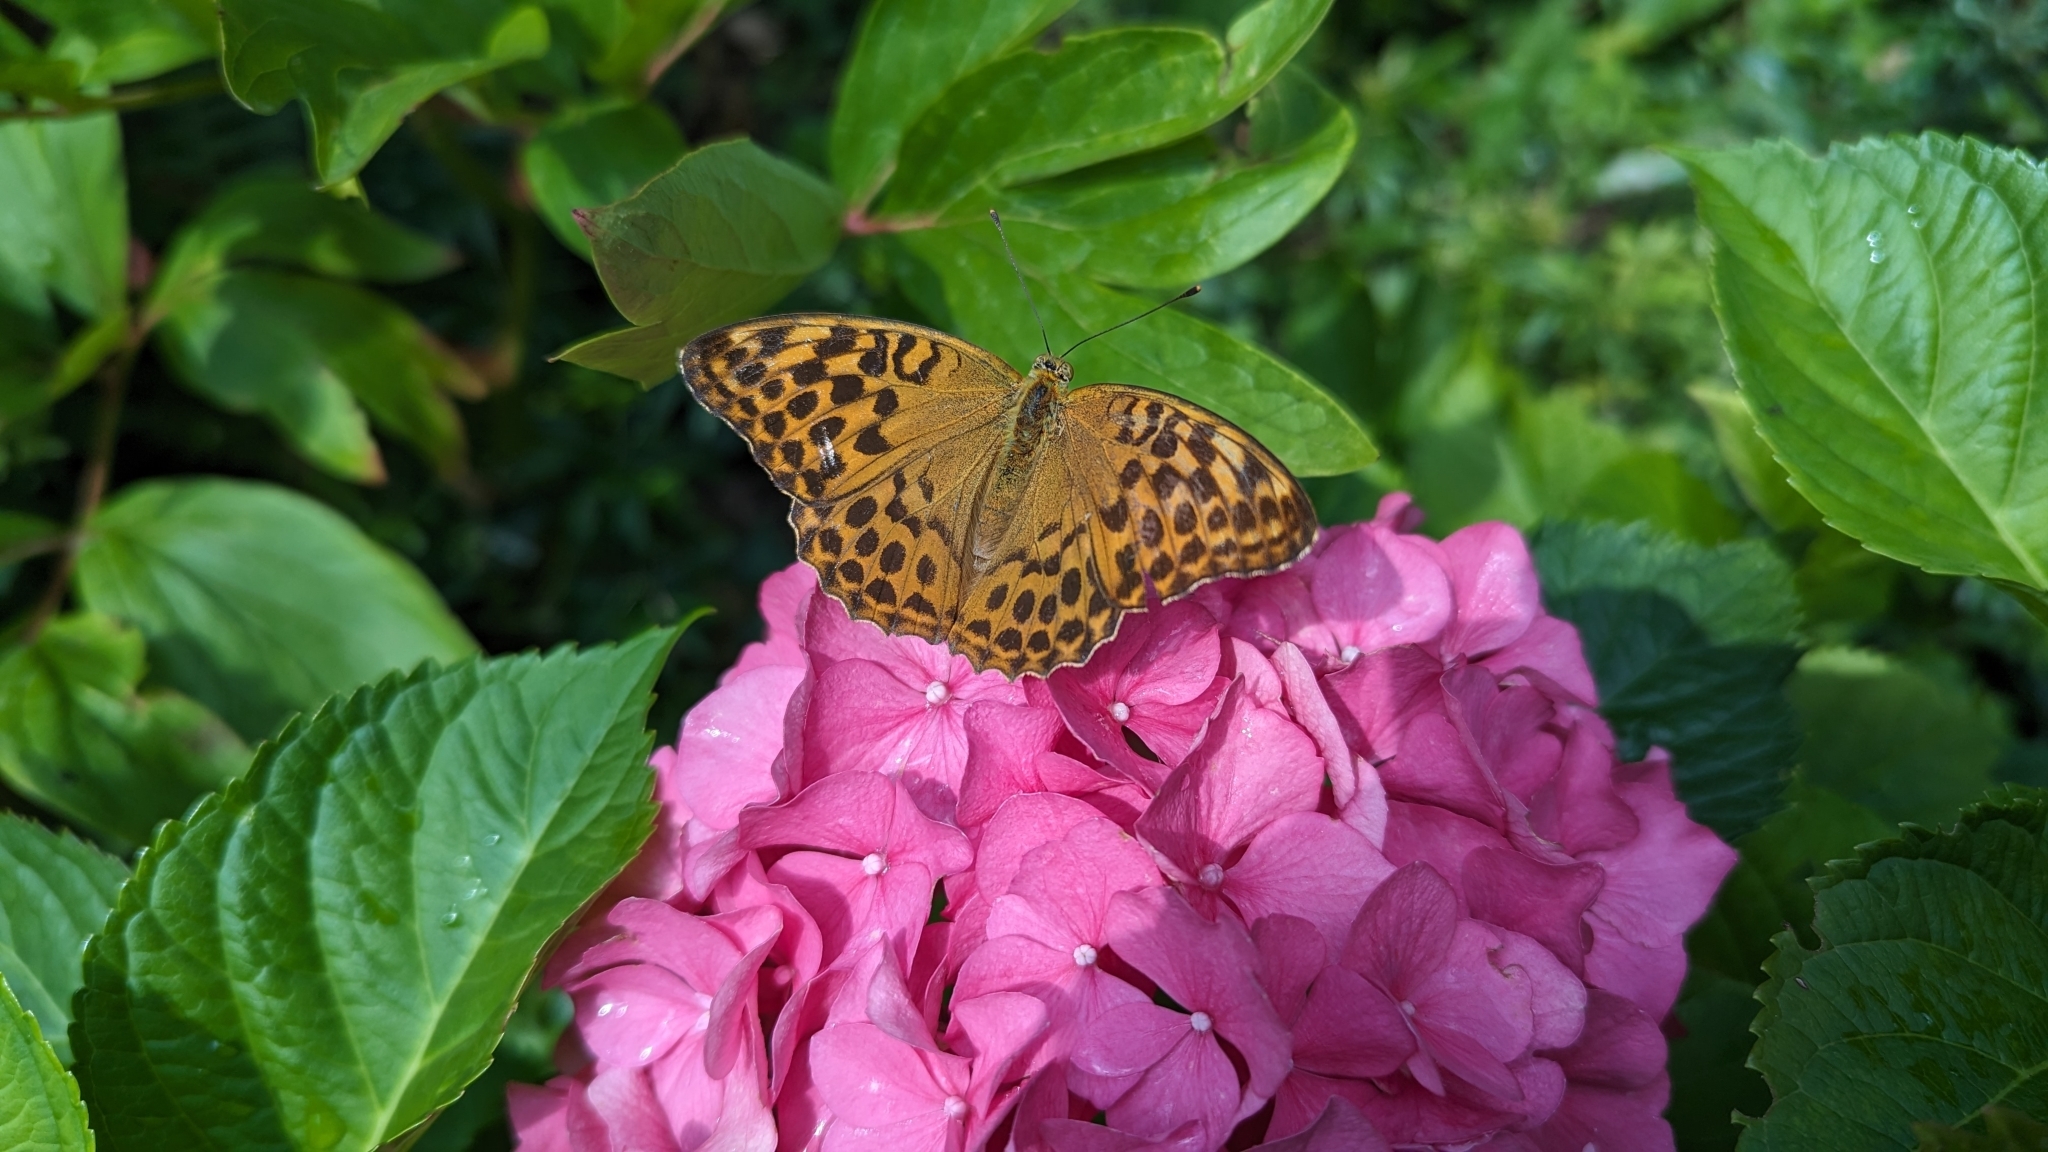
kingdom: Animalia
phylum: Arthropoda
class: Insecta
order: Lepidoptera
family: Nymphalidae
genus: Argynnis
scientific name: Argynnis paphia
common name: Silver-washed fritillary
